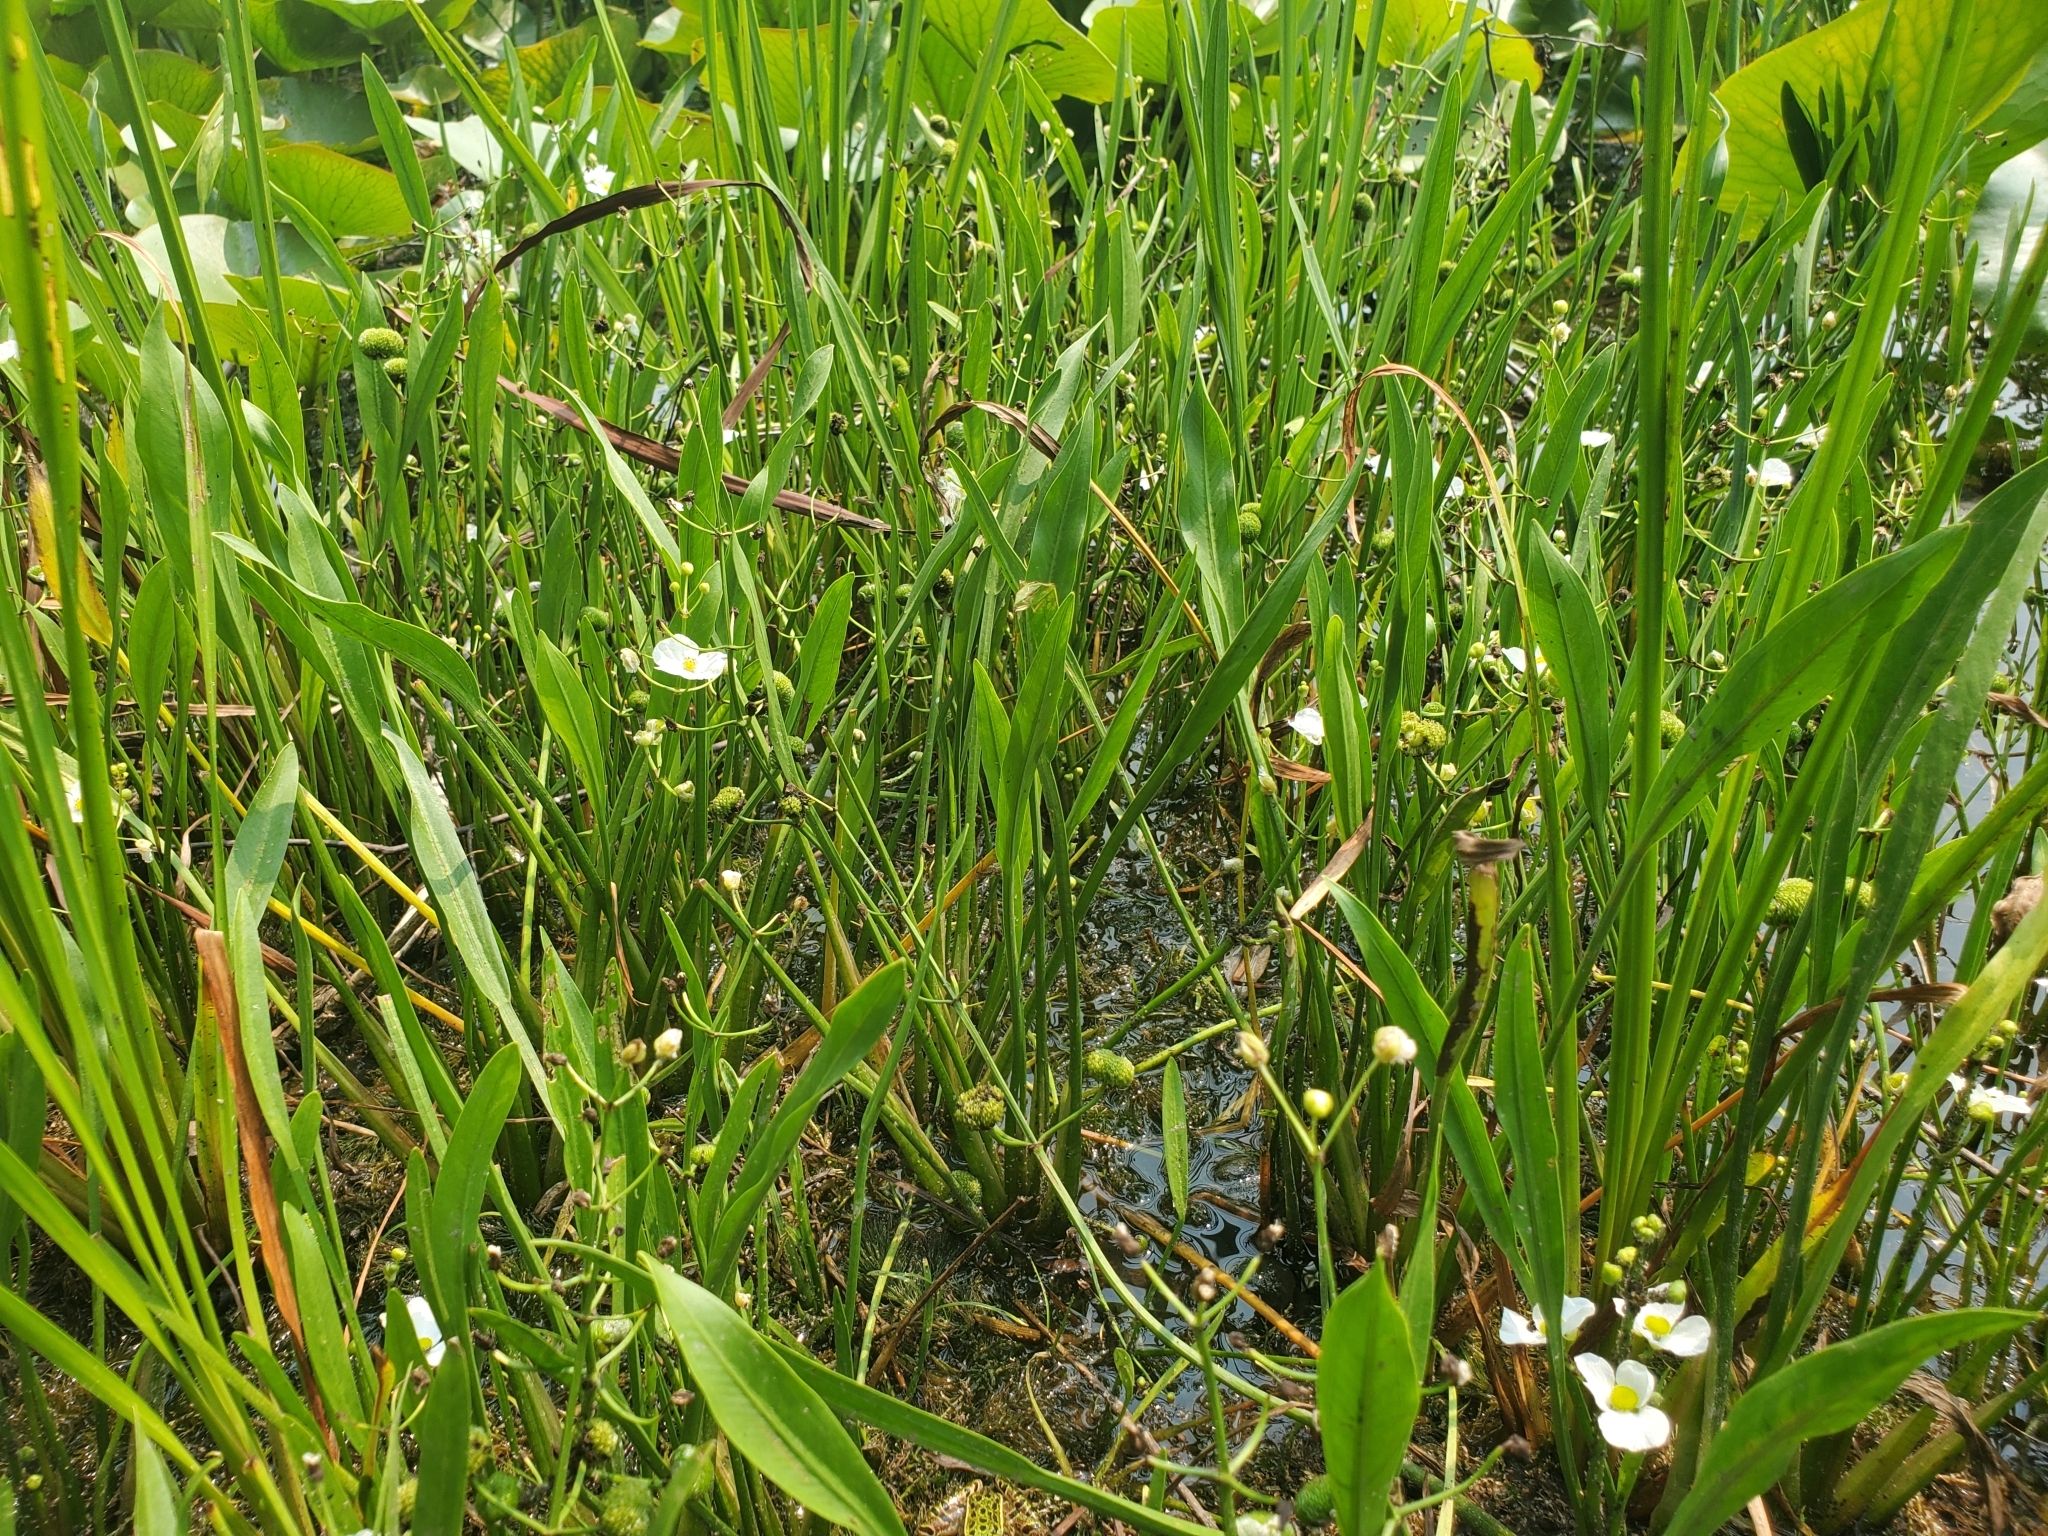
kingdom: Plantae
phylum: Tracheophyta
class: Liliopsida
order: Alismatales
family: Alismataceae
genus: Sagittaria
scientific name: Sagittaria cristata
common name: Crested arrowhead
